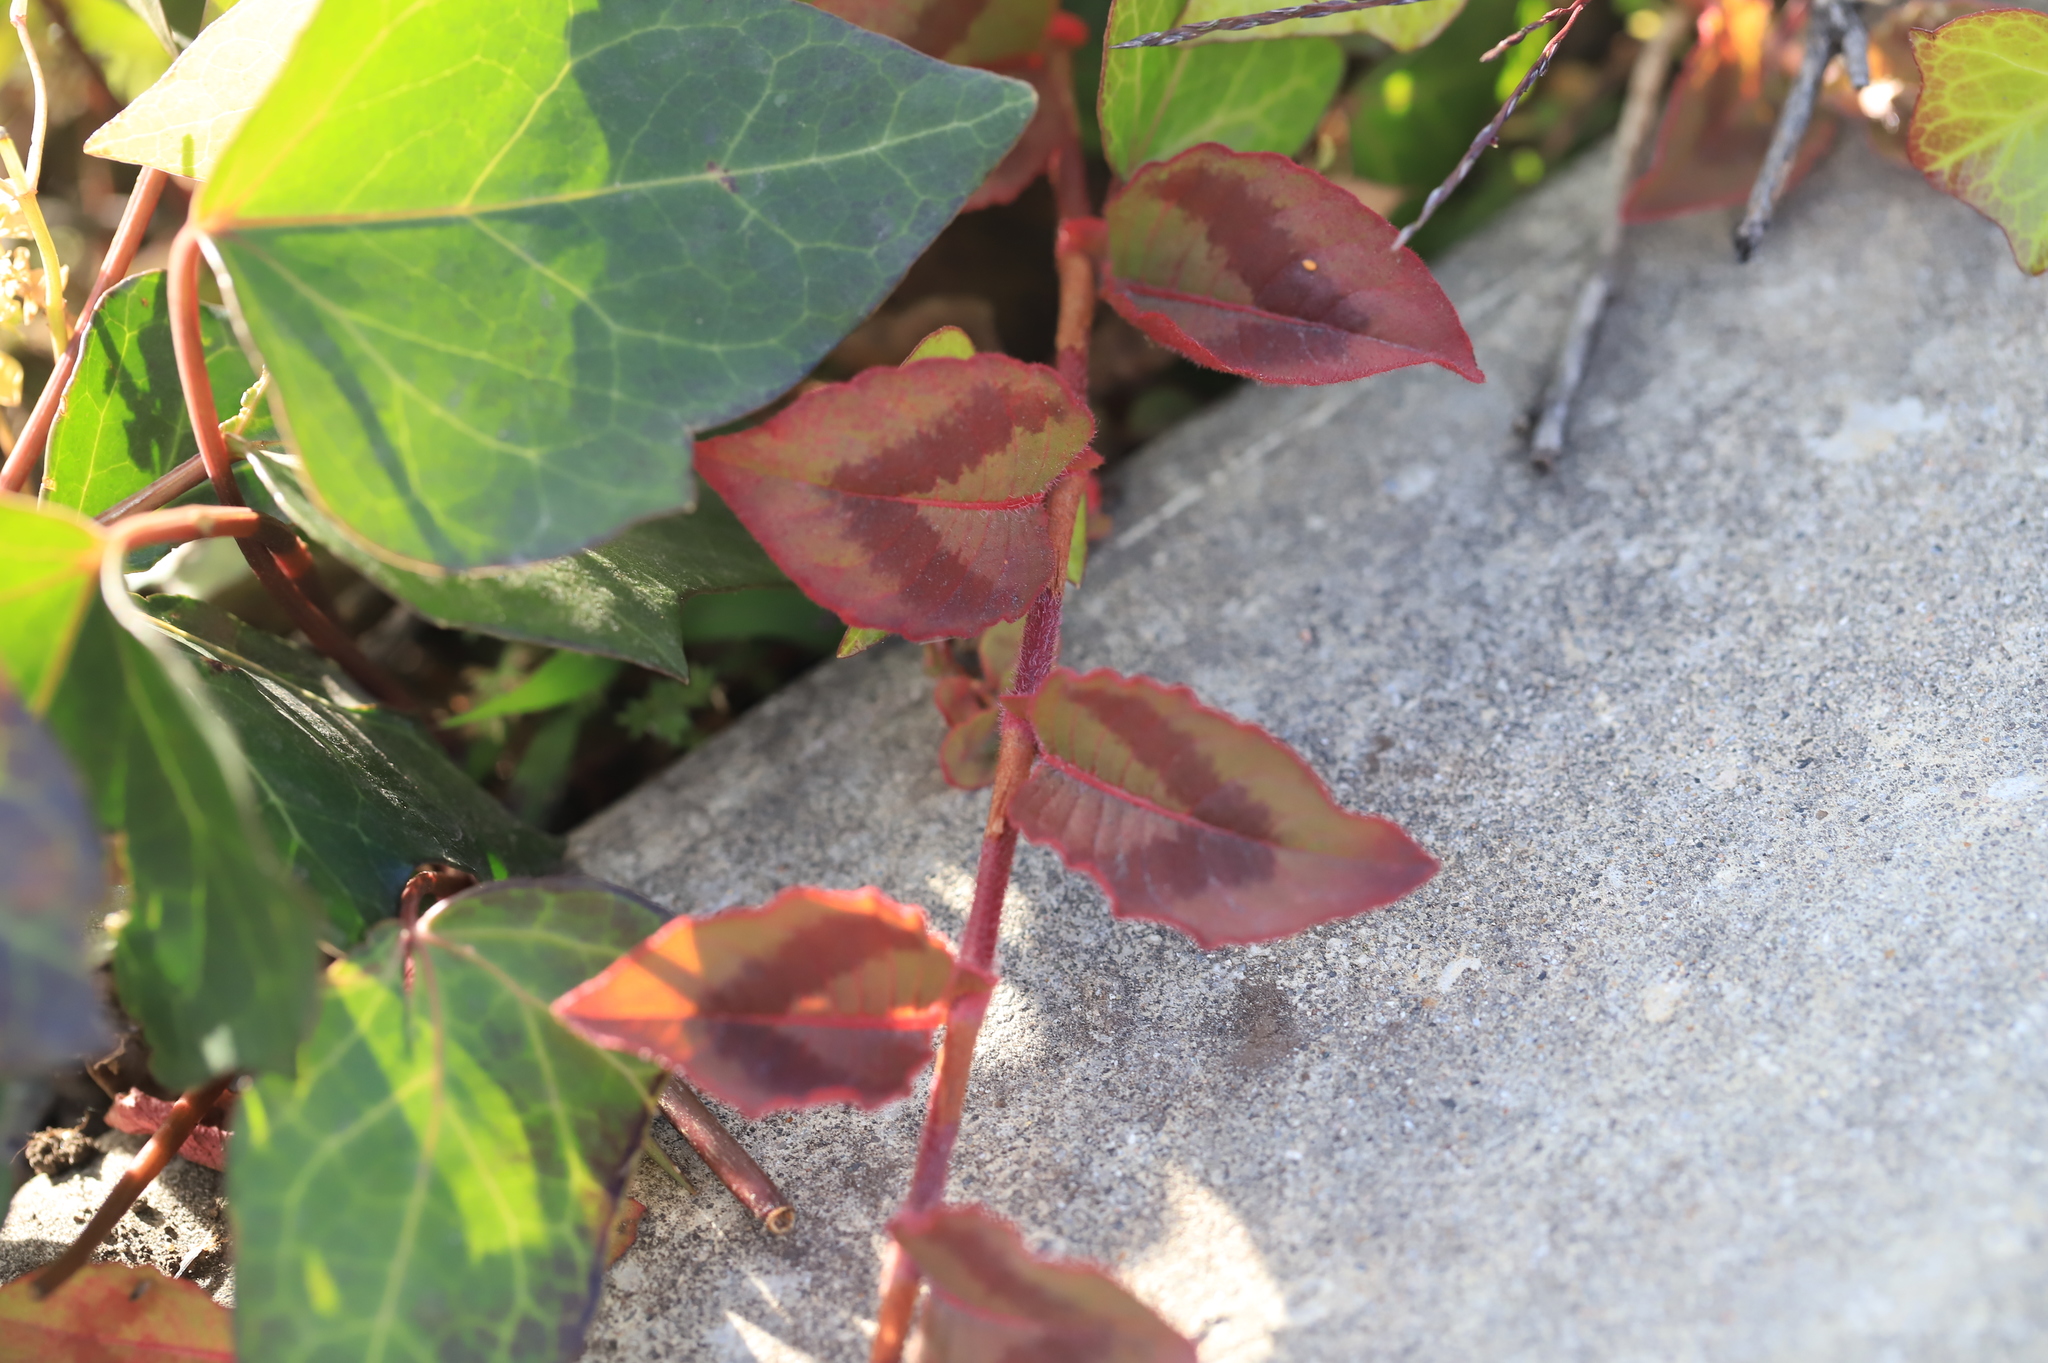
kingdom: Plantae
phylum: Tracheophyta
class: Magnoliopsida
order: Caryophyllales
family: Polygonaceae
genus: Persicaria
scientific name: Persicaria capitata
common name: Pinkhead smartweed
